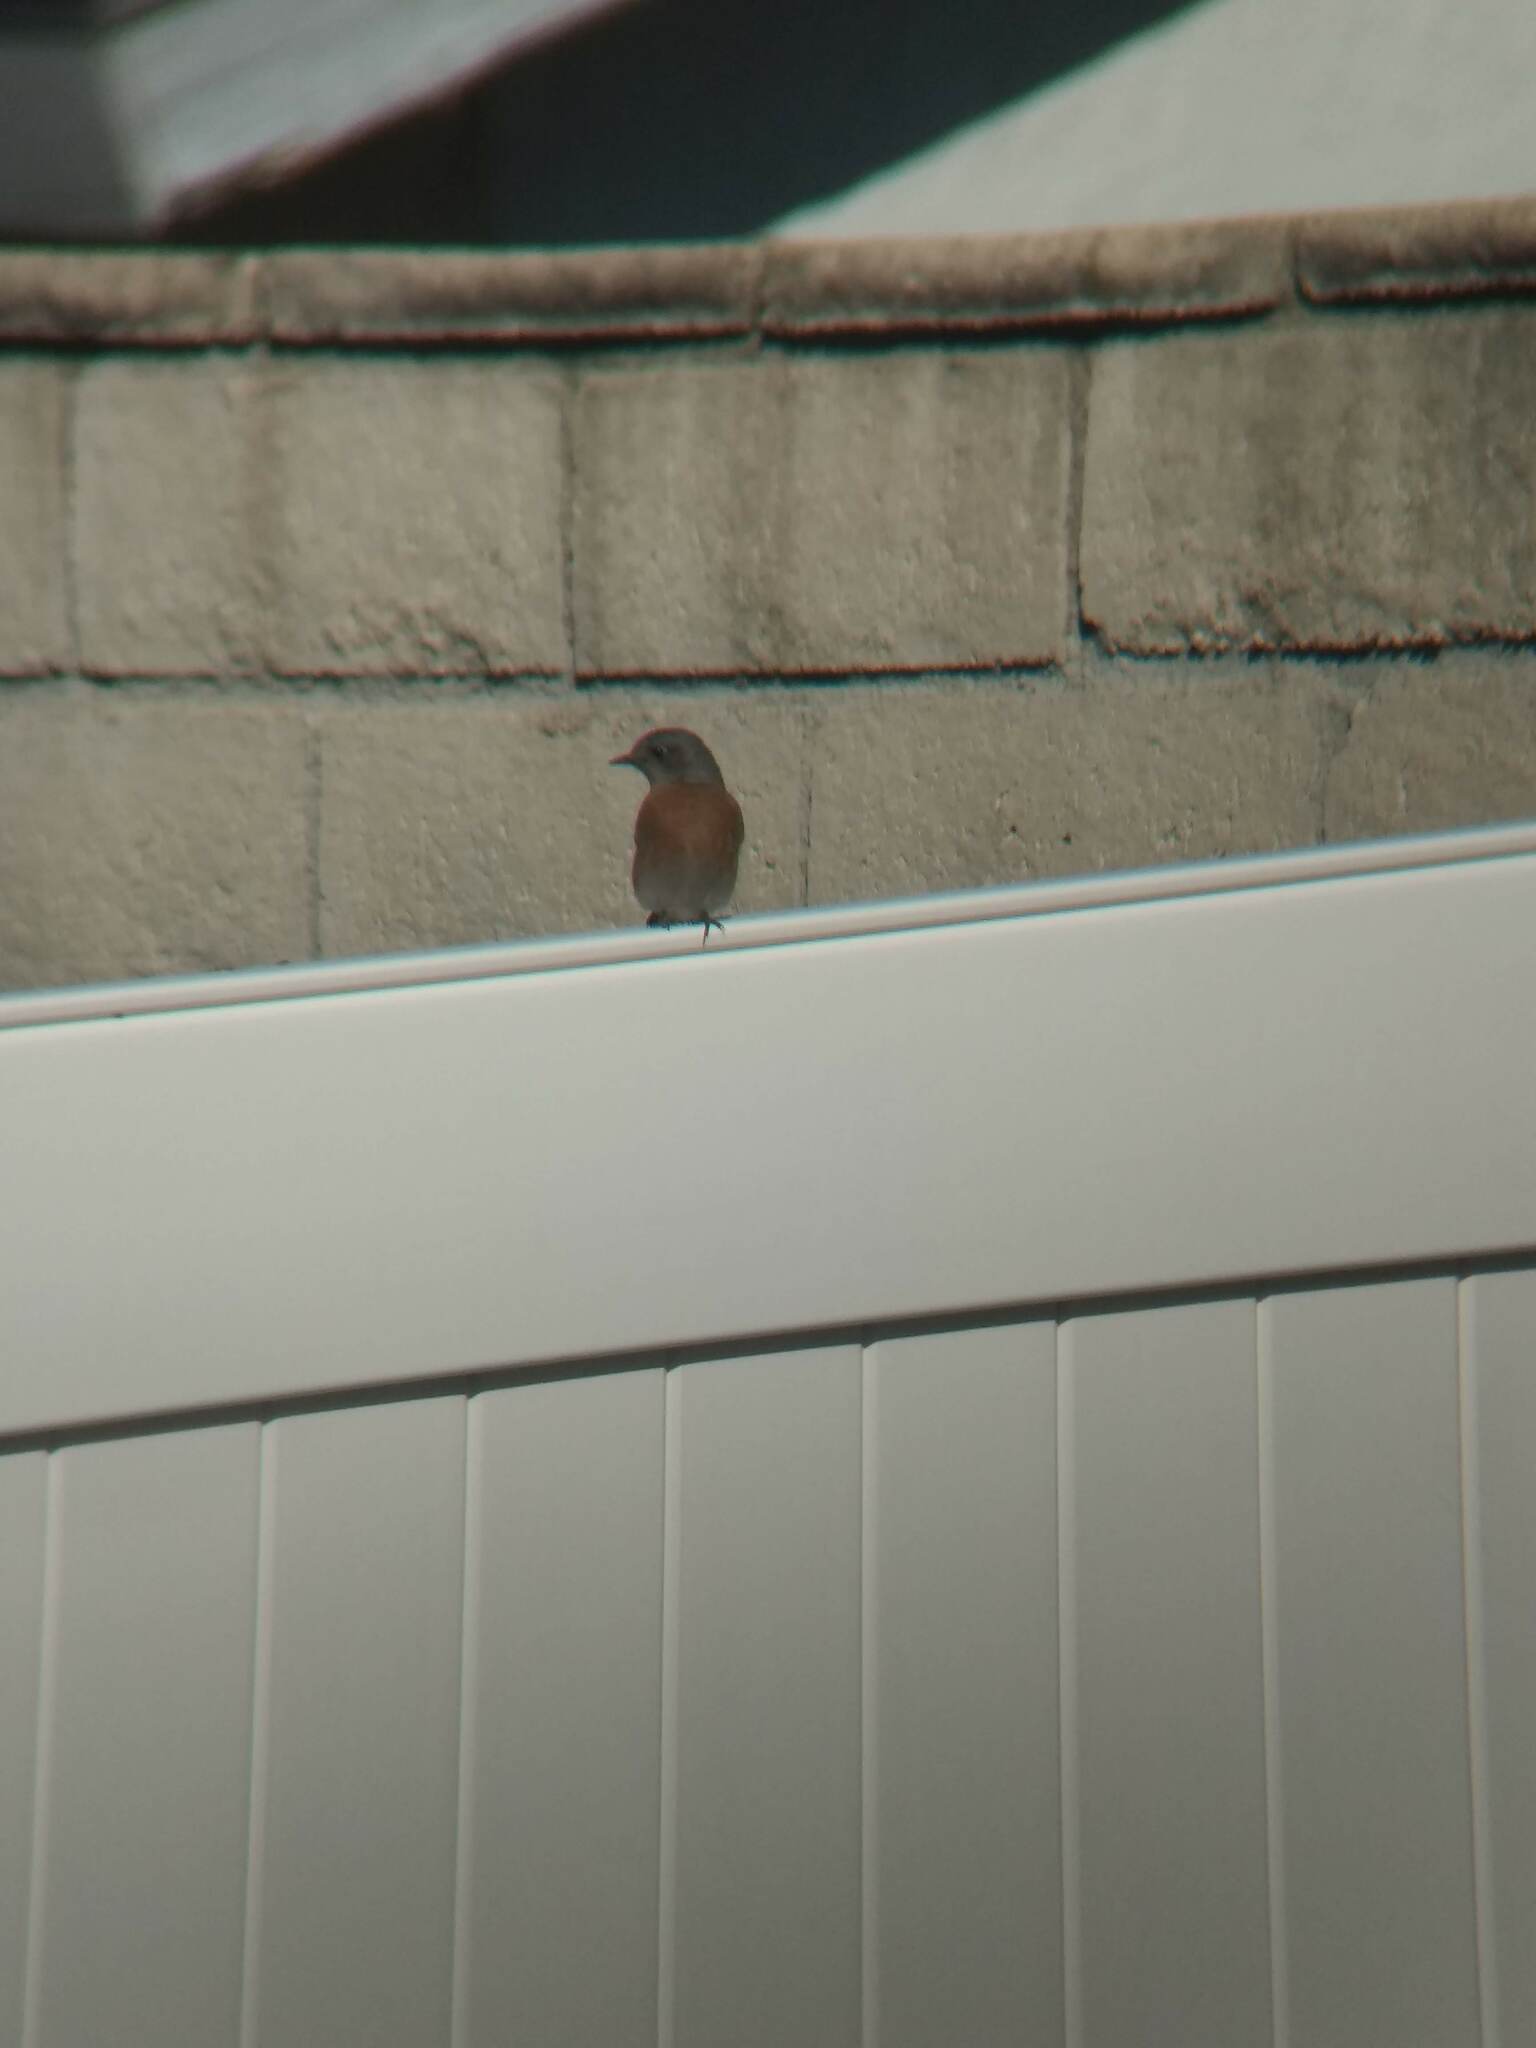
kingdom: Animalia
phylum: Chordata
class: Aves
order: Passeriformes
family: Turdidae
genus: Sialia
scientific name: Sialia mexicana
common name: Western bluebird
